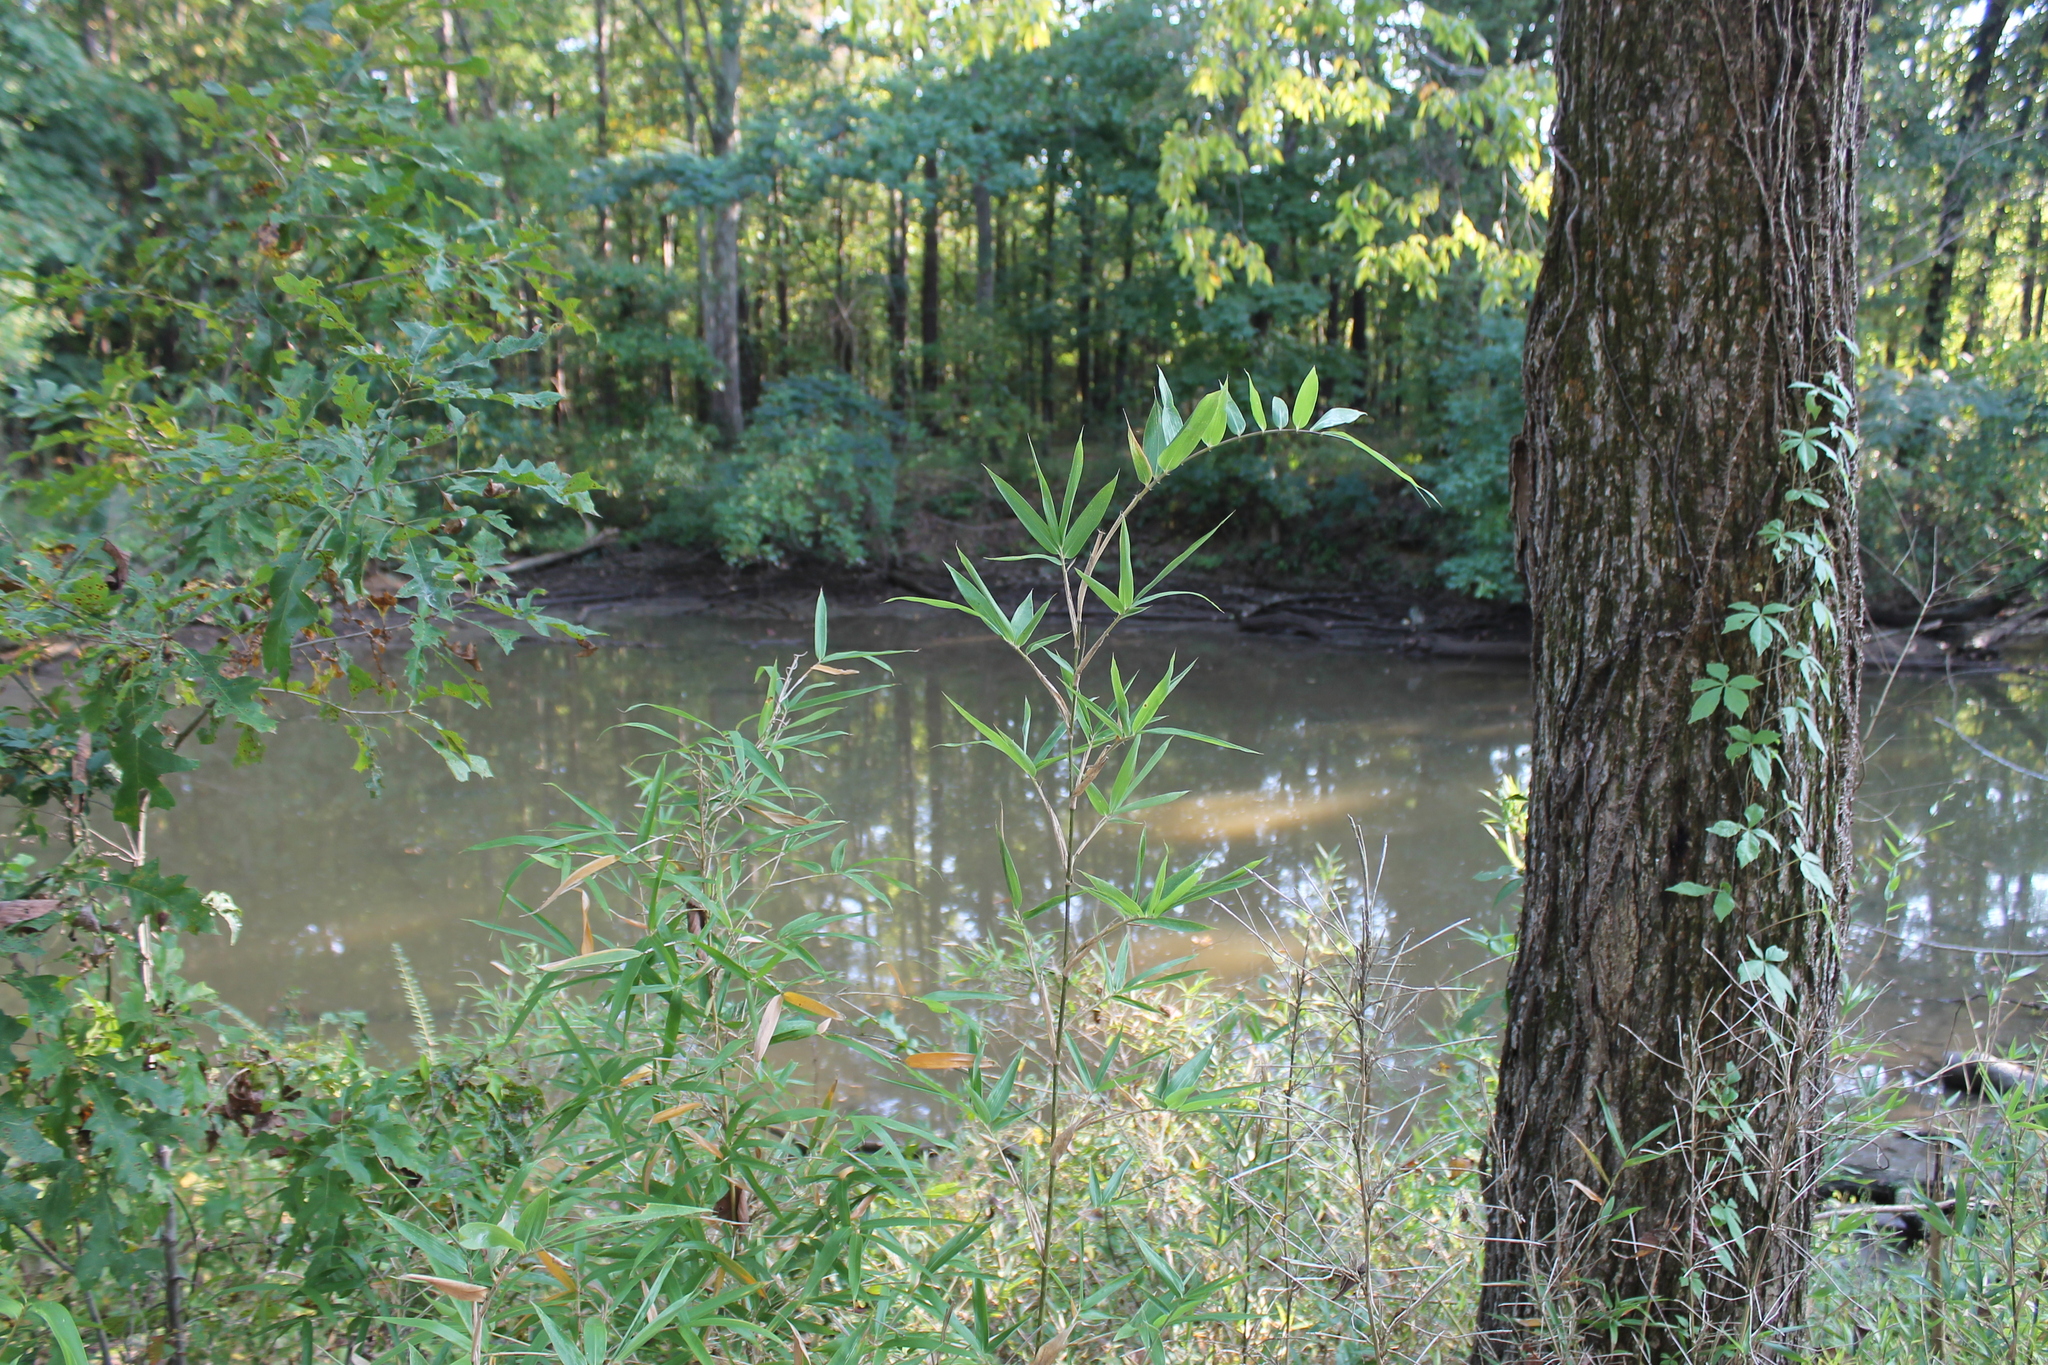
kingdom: Plantae
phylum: Tracheophyta
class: Liliopsida
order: Poales
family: Poaceae
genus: Arundinaria
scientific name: Arundinaria gigantea
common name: Giant cane
